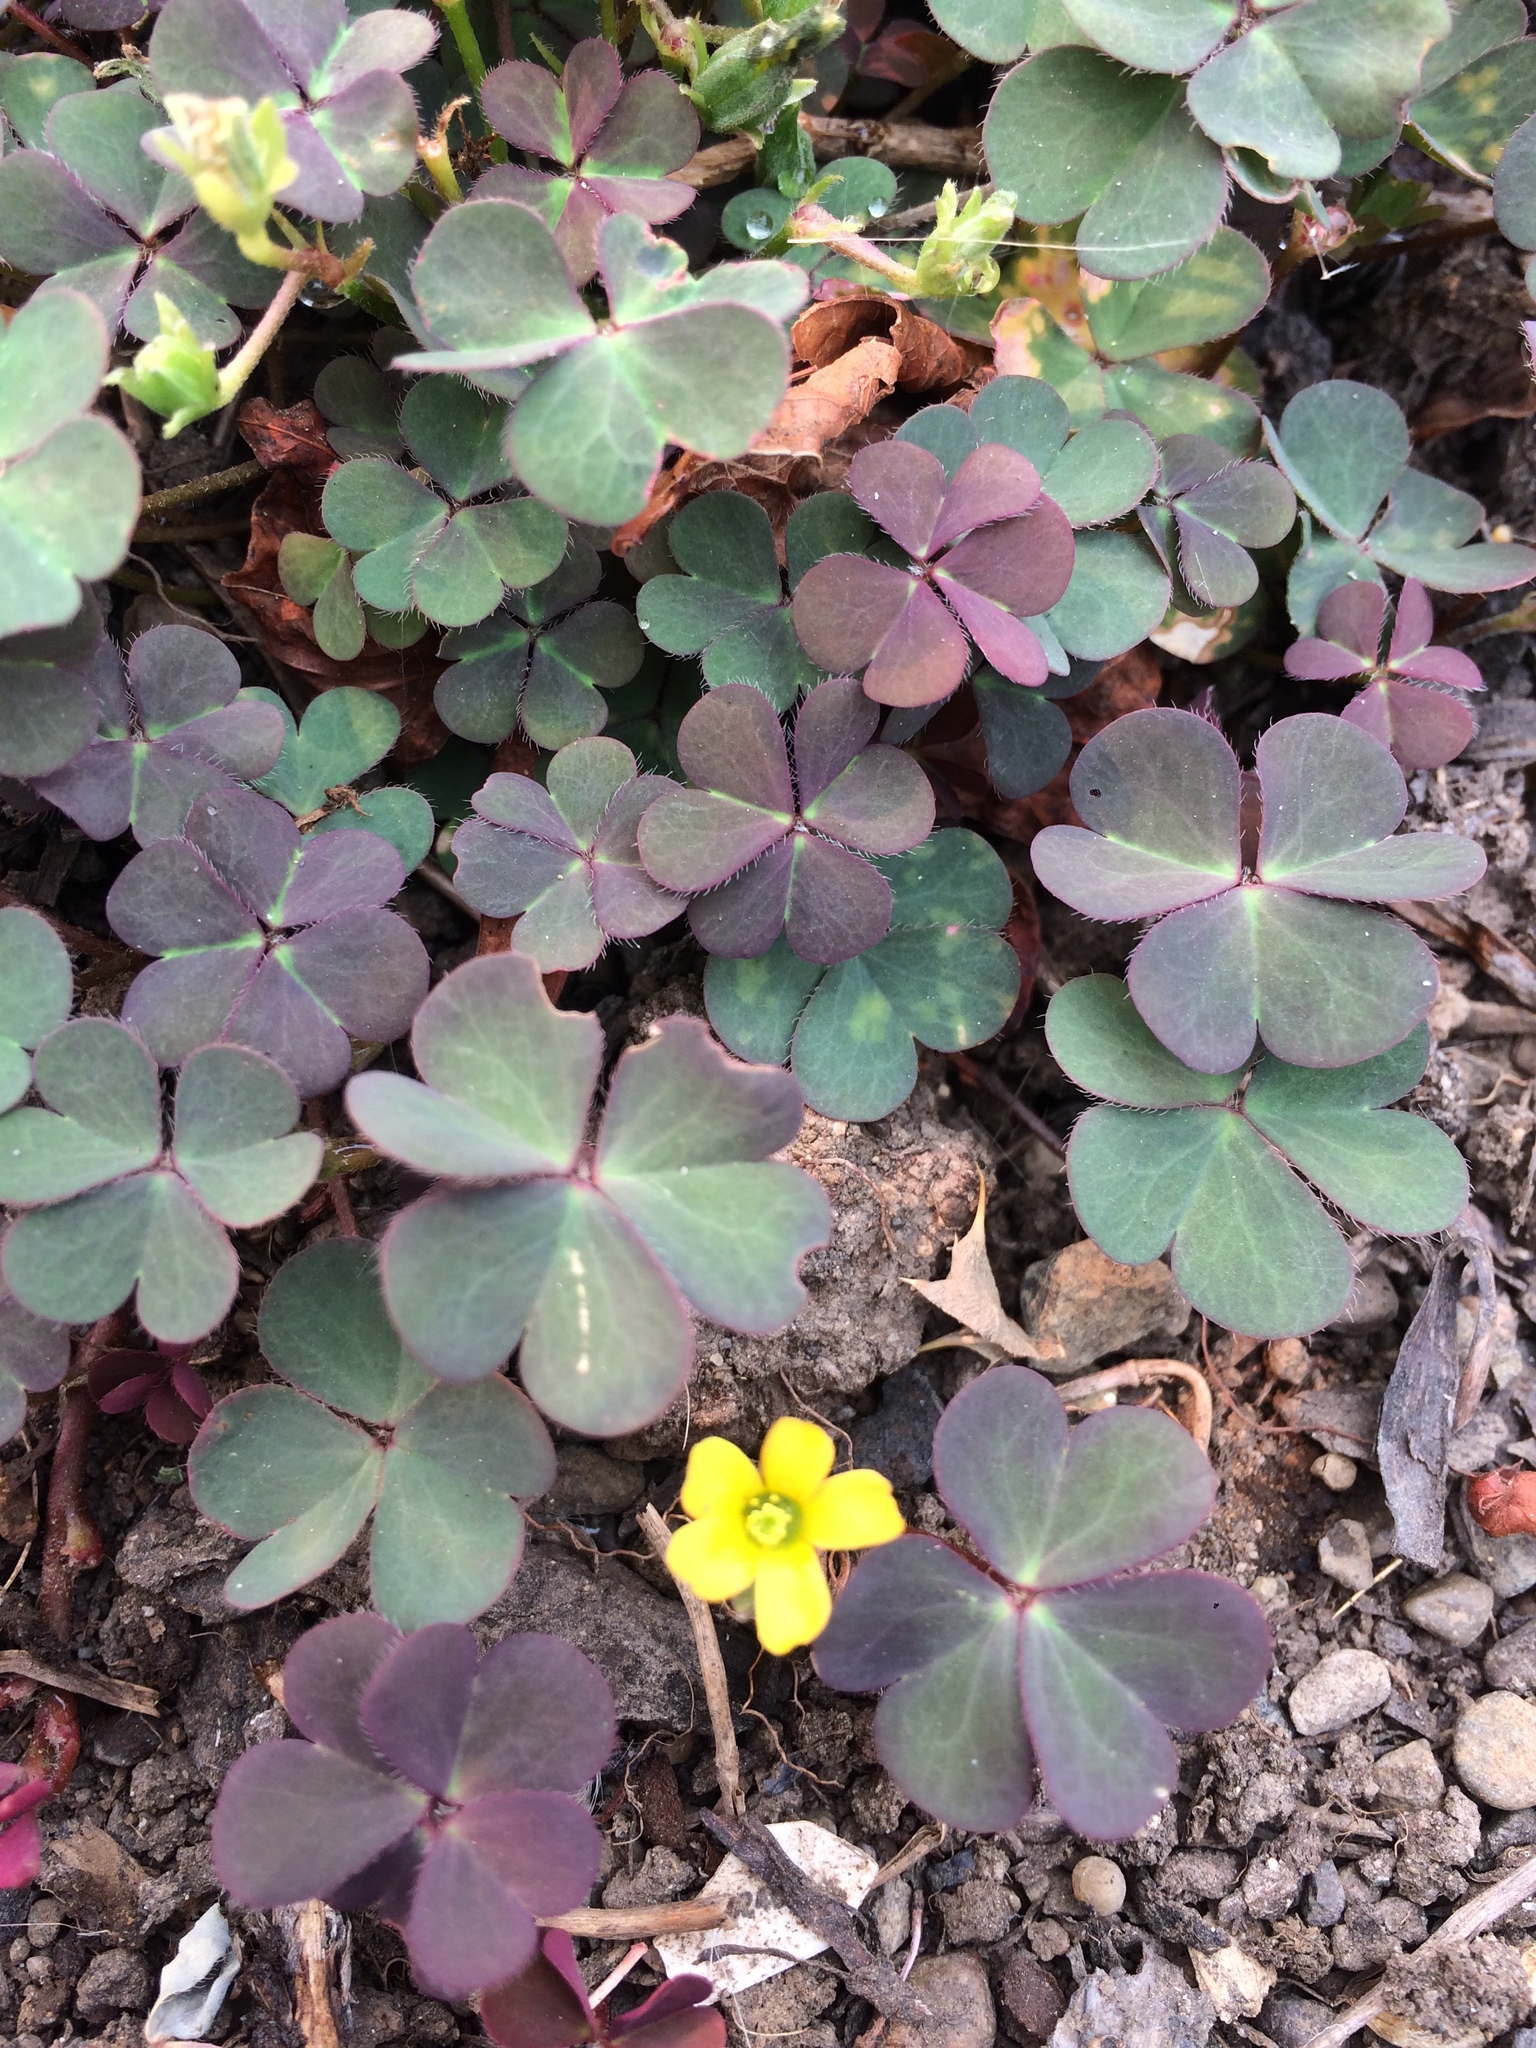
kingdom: Plantae
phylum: Tracheophyta
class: Magnoliopsida
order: Oxalidales
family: Oxalidaceae
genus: Oxalis
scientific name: Oxalis corniculata
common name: Procumbent yellow-sorrel
